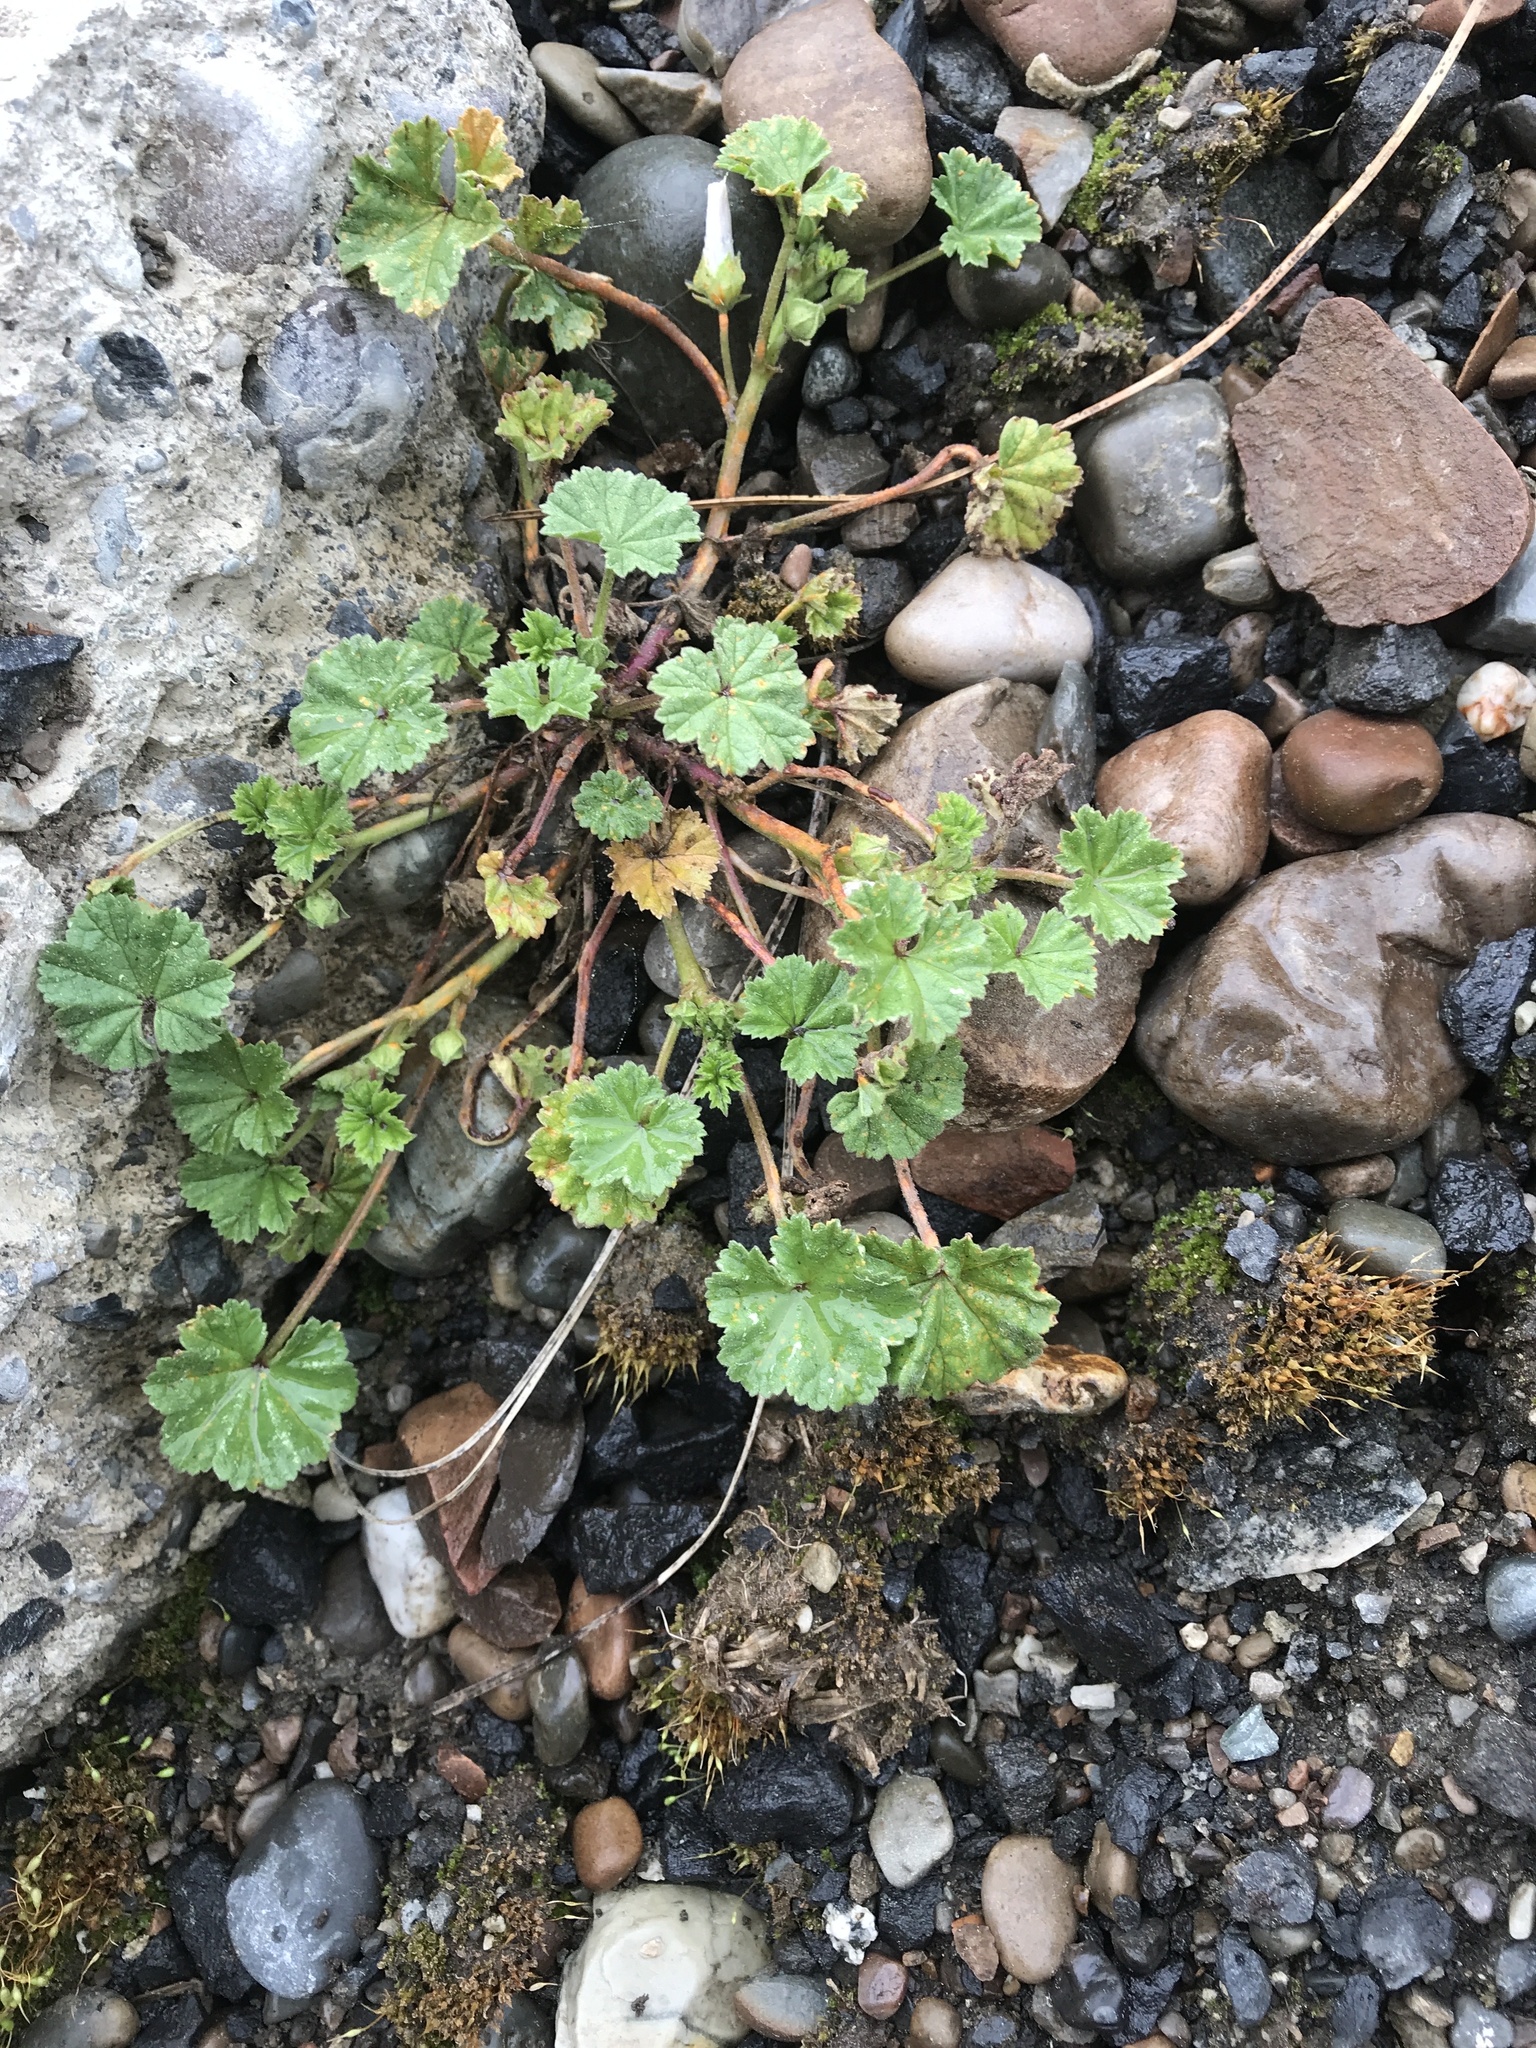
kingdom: Plantae
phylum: Tracheophyta
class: Magnoliopsida
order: Malvales
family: Malvaceae
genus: Malva
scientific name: Malva neglecta
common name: Common mallow
